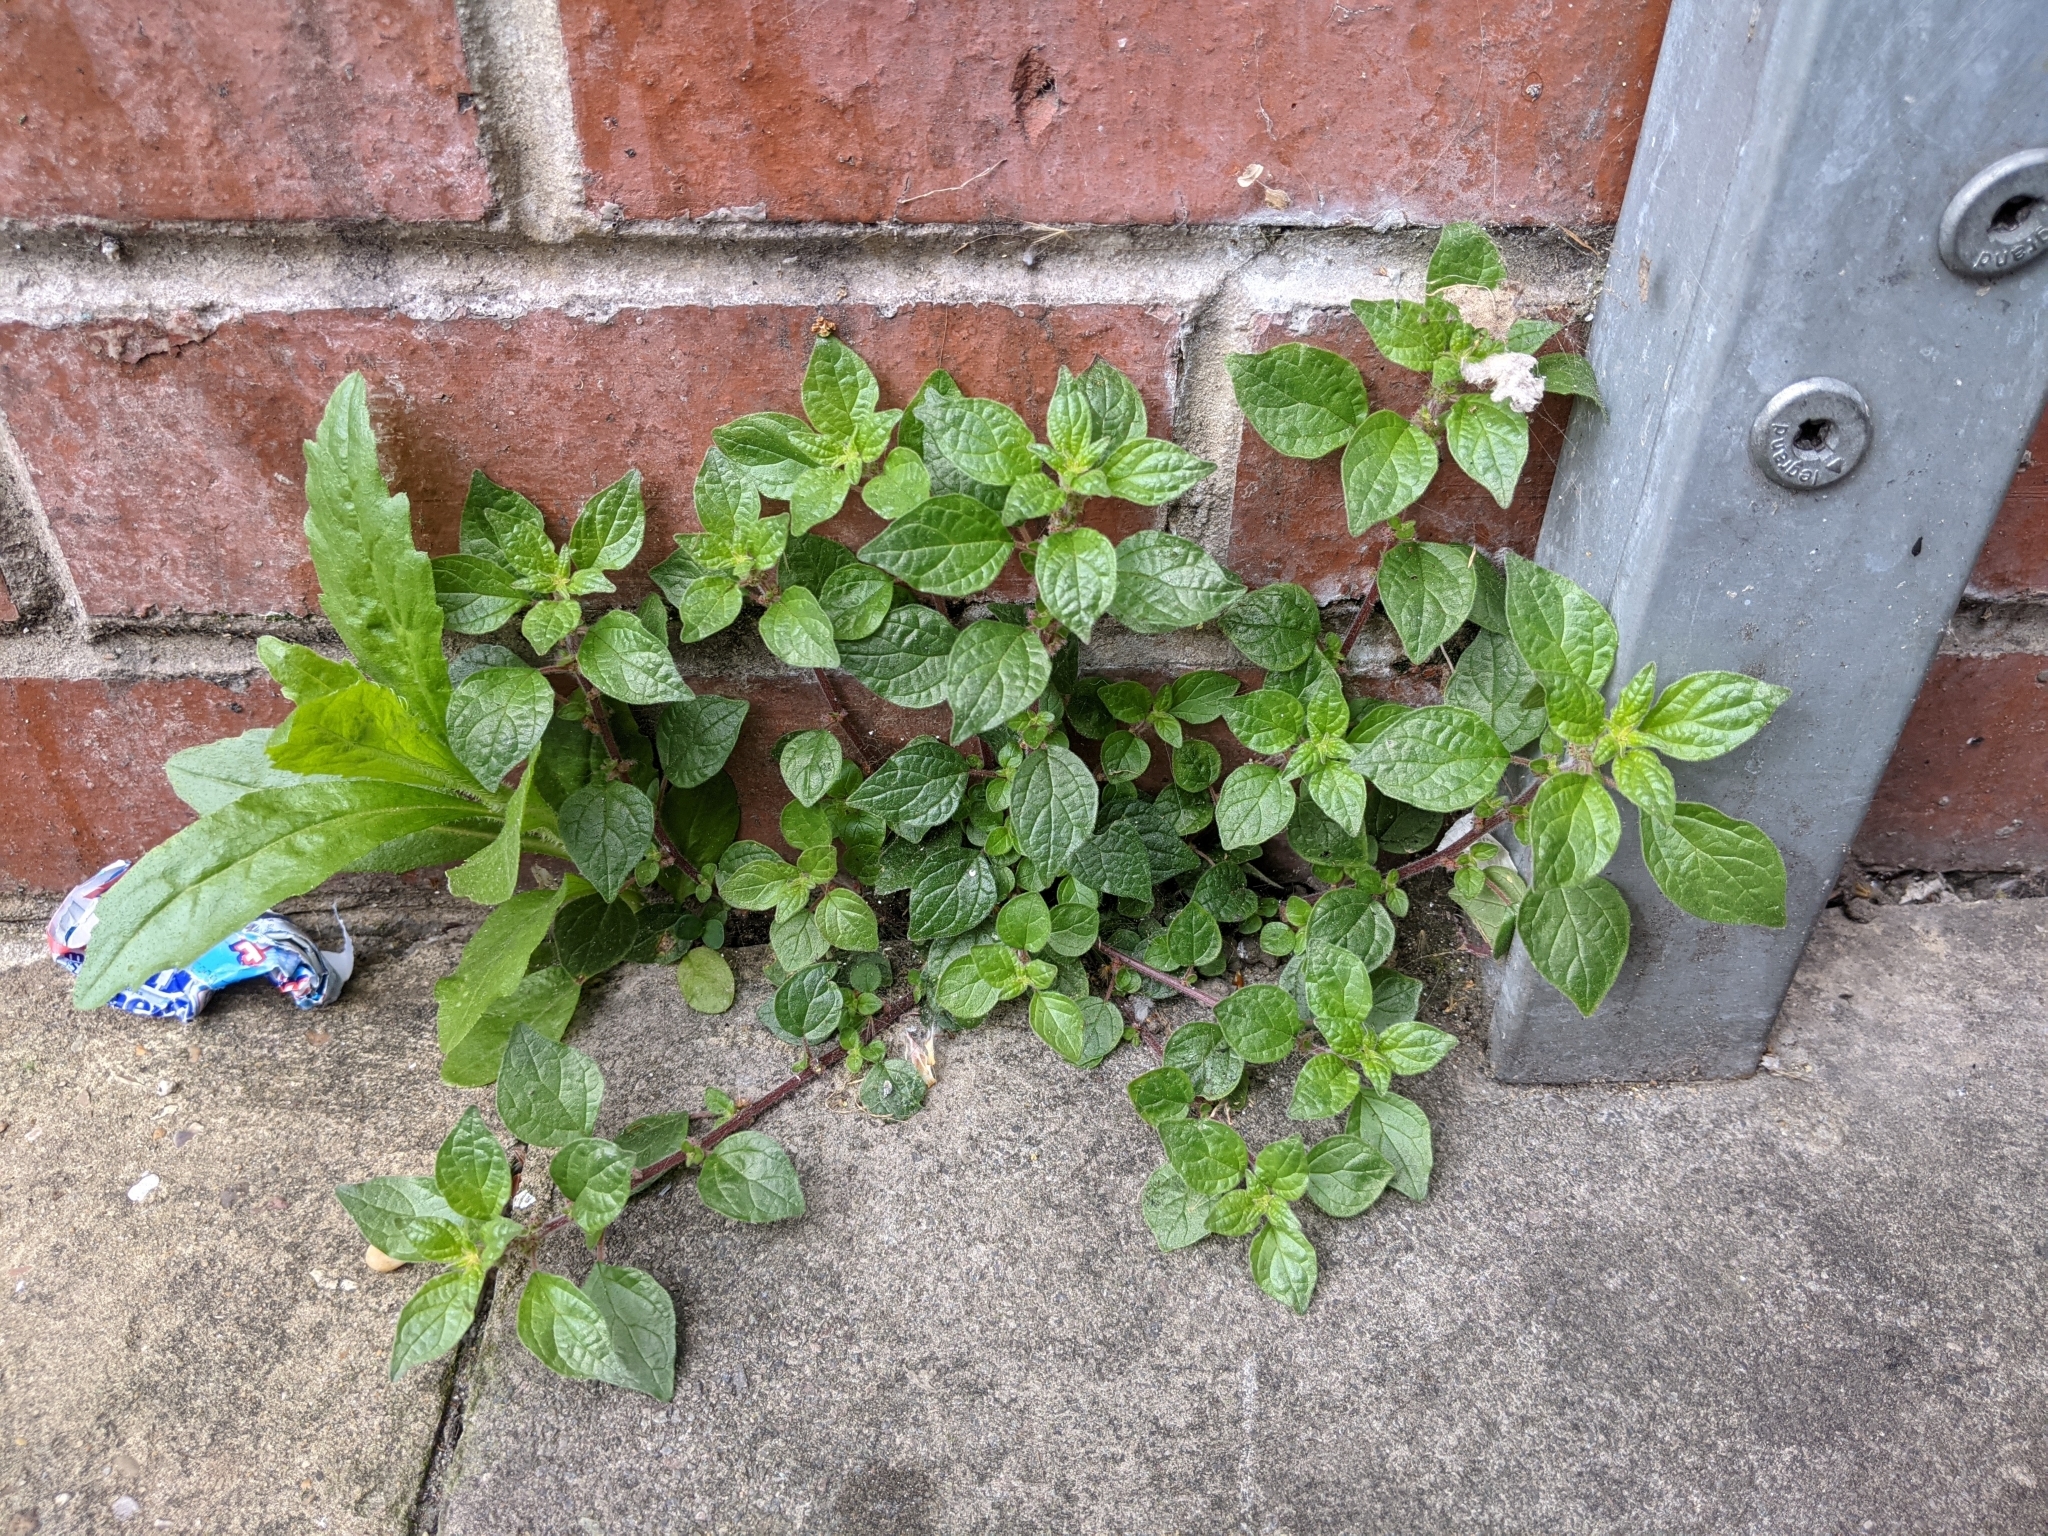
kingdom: Plantae
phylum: Tracheophyta
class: Magnoliopsida
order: Rosales
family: Urticaceae
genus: Parietaria
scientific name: Parietaria judaica
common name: Pellitory-of-the-wall
